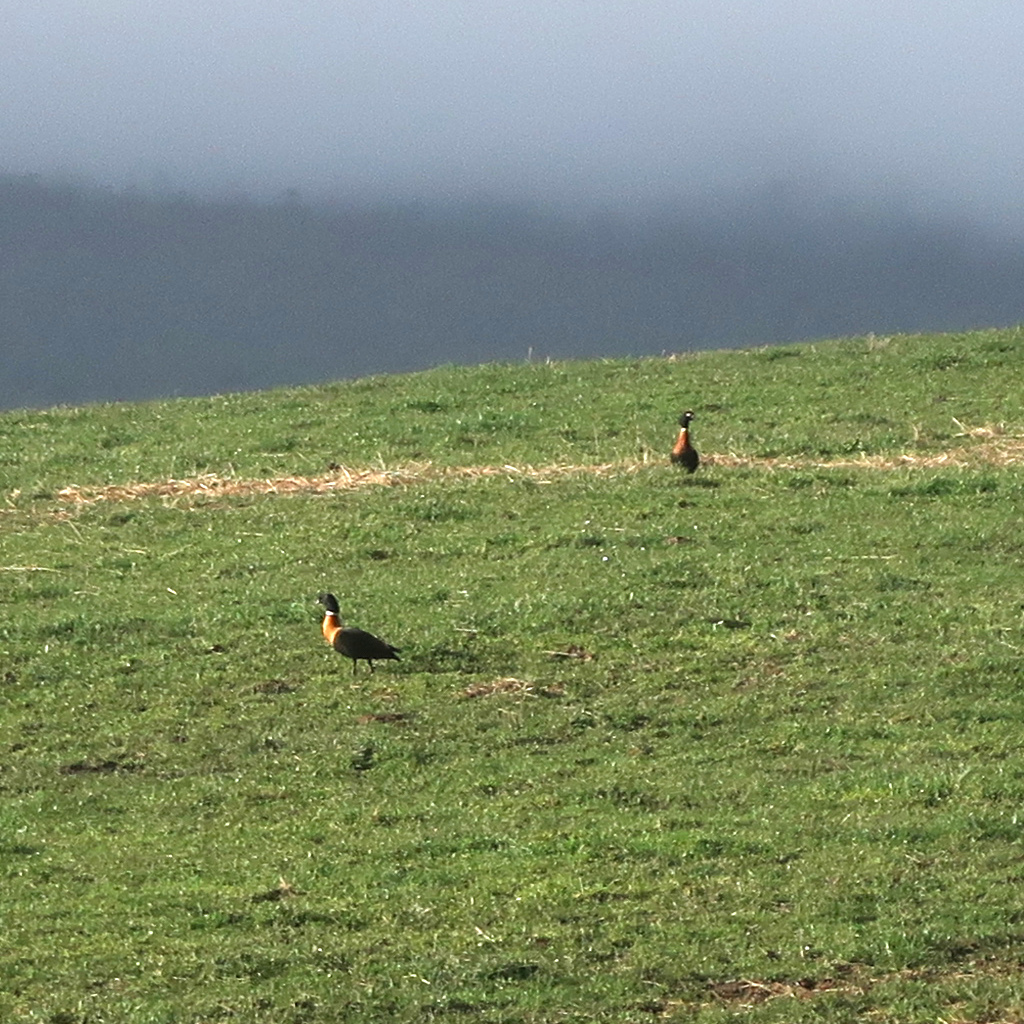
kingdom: Animalia
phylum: Chordata
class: Aves
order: Anseriformes
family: Anatidae
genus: Tadorna
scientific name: Tadorna tadornoides
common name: Australian shelduck
